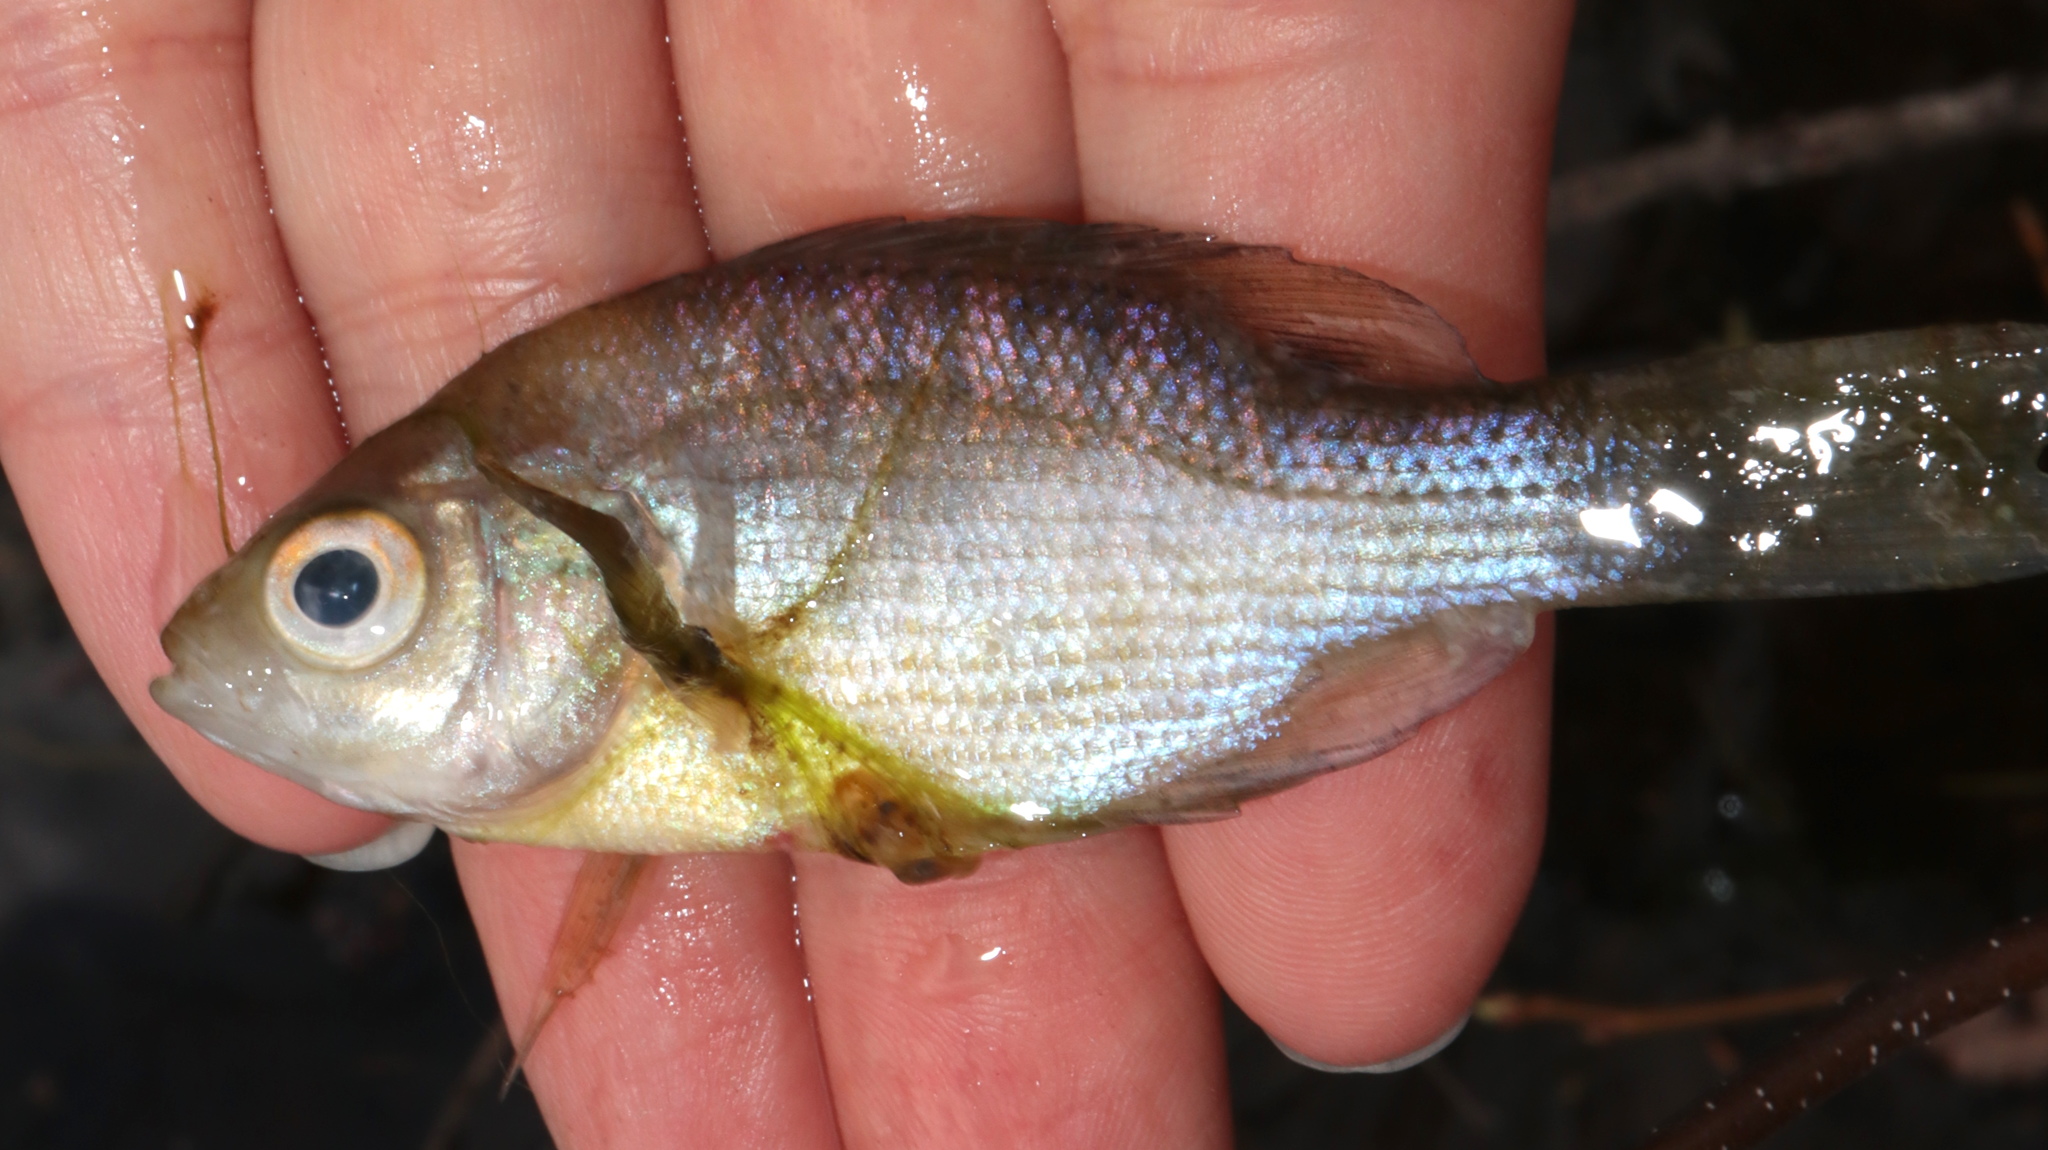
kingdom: Animalia
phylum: Chordata
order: Perciformes
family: Centrarchidae
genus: Lepomis
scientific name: Lepomis macrochirus
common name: Bluegill
